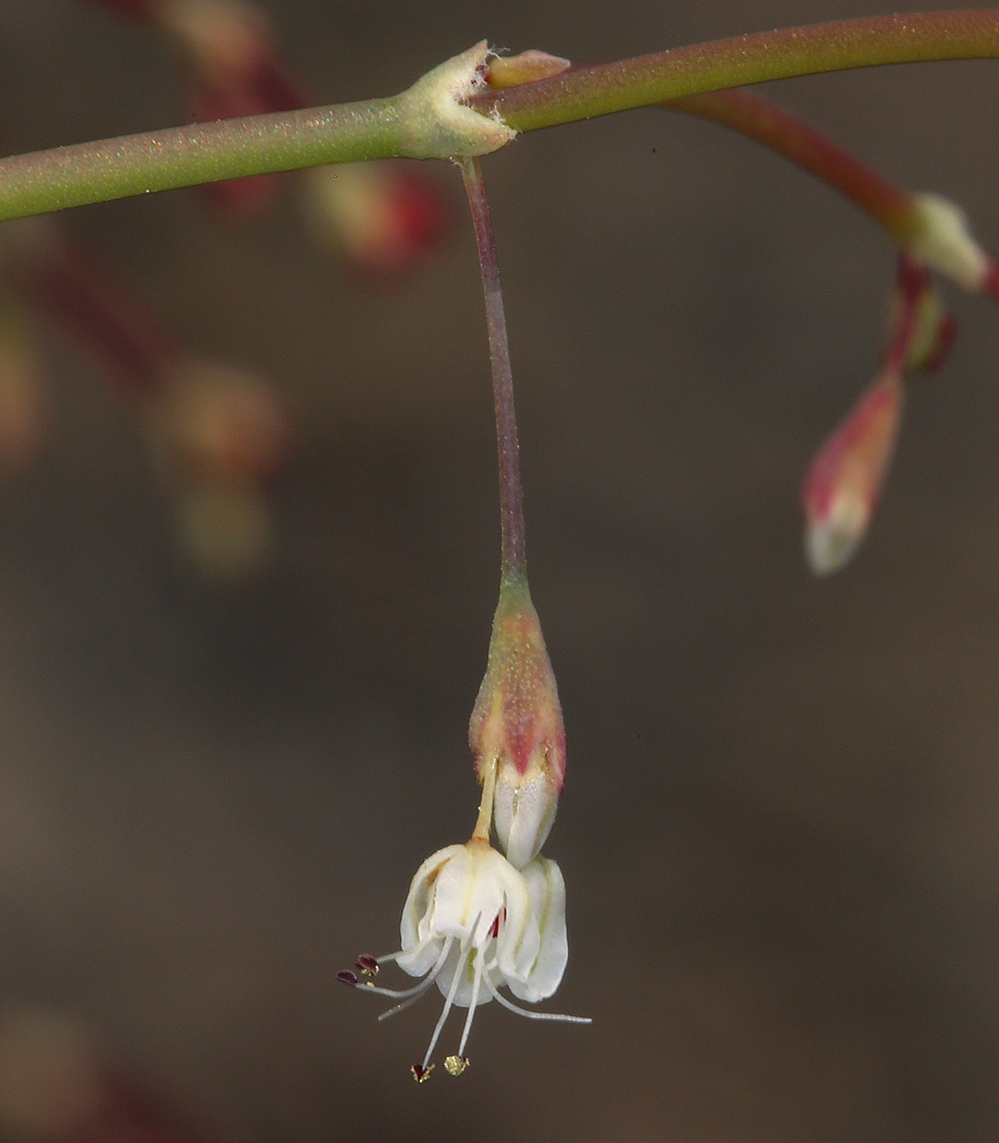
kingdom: Plantae
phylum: Tracheophyta
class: Magnoliopsida
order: Caryophyllales
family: Polygonaceae
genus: Eriogonum
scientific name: Eriogonum watsonii
